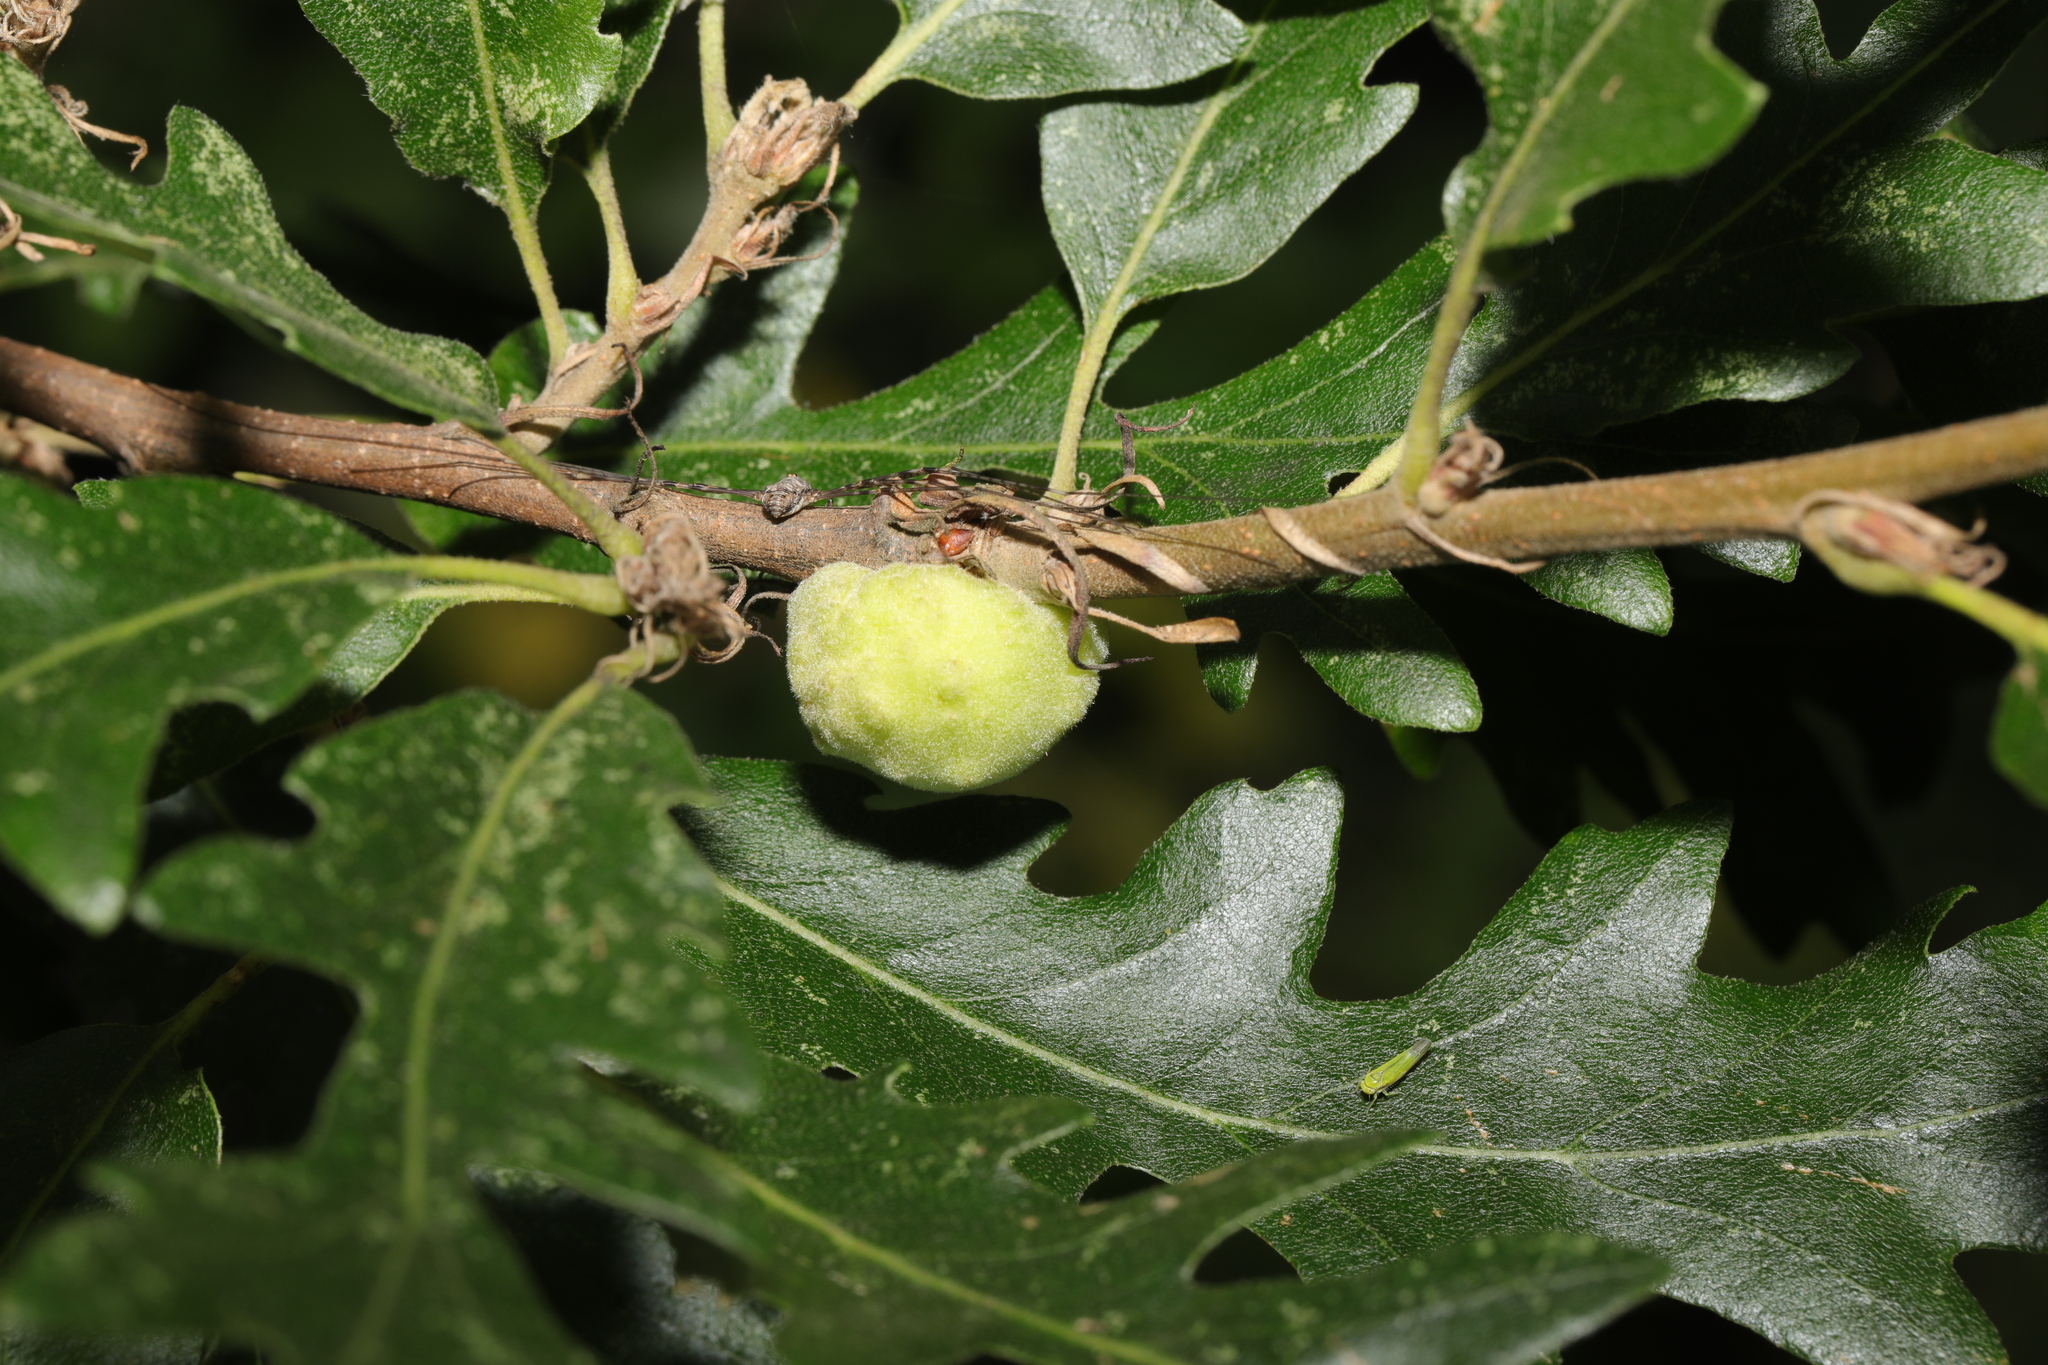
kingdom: Animalia
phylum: Arthropoda
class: Insecta
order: Hymenoptera
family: Cynipidae
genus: Aphelonyx
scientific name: Aphelonyx cerricola
